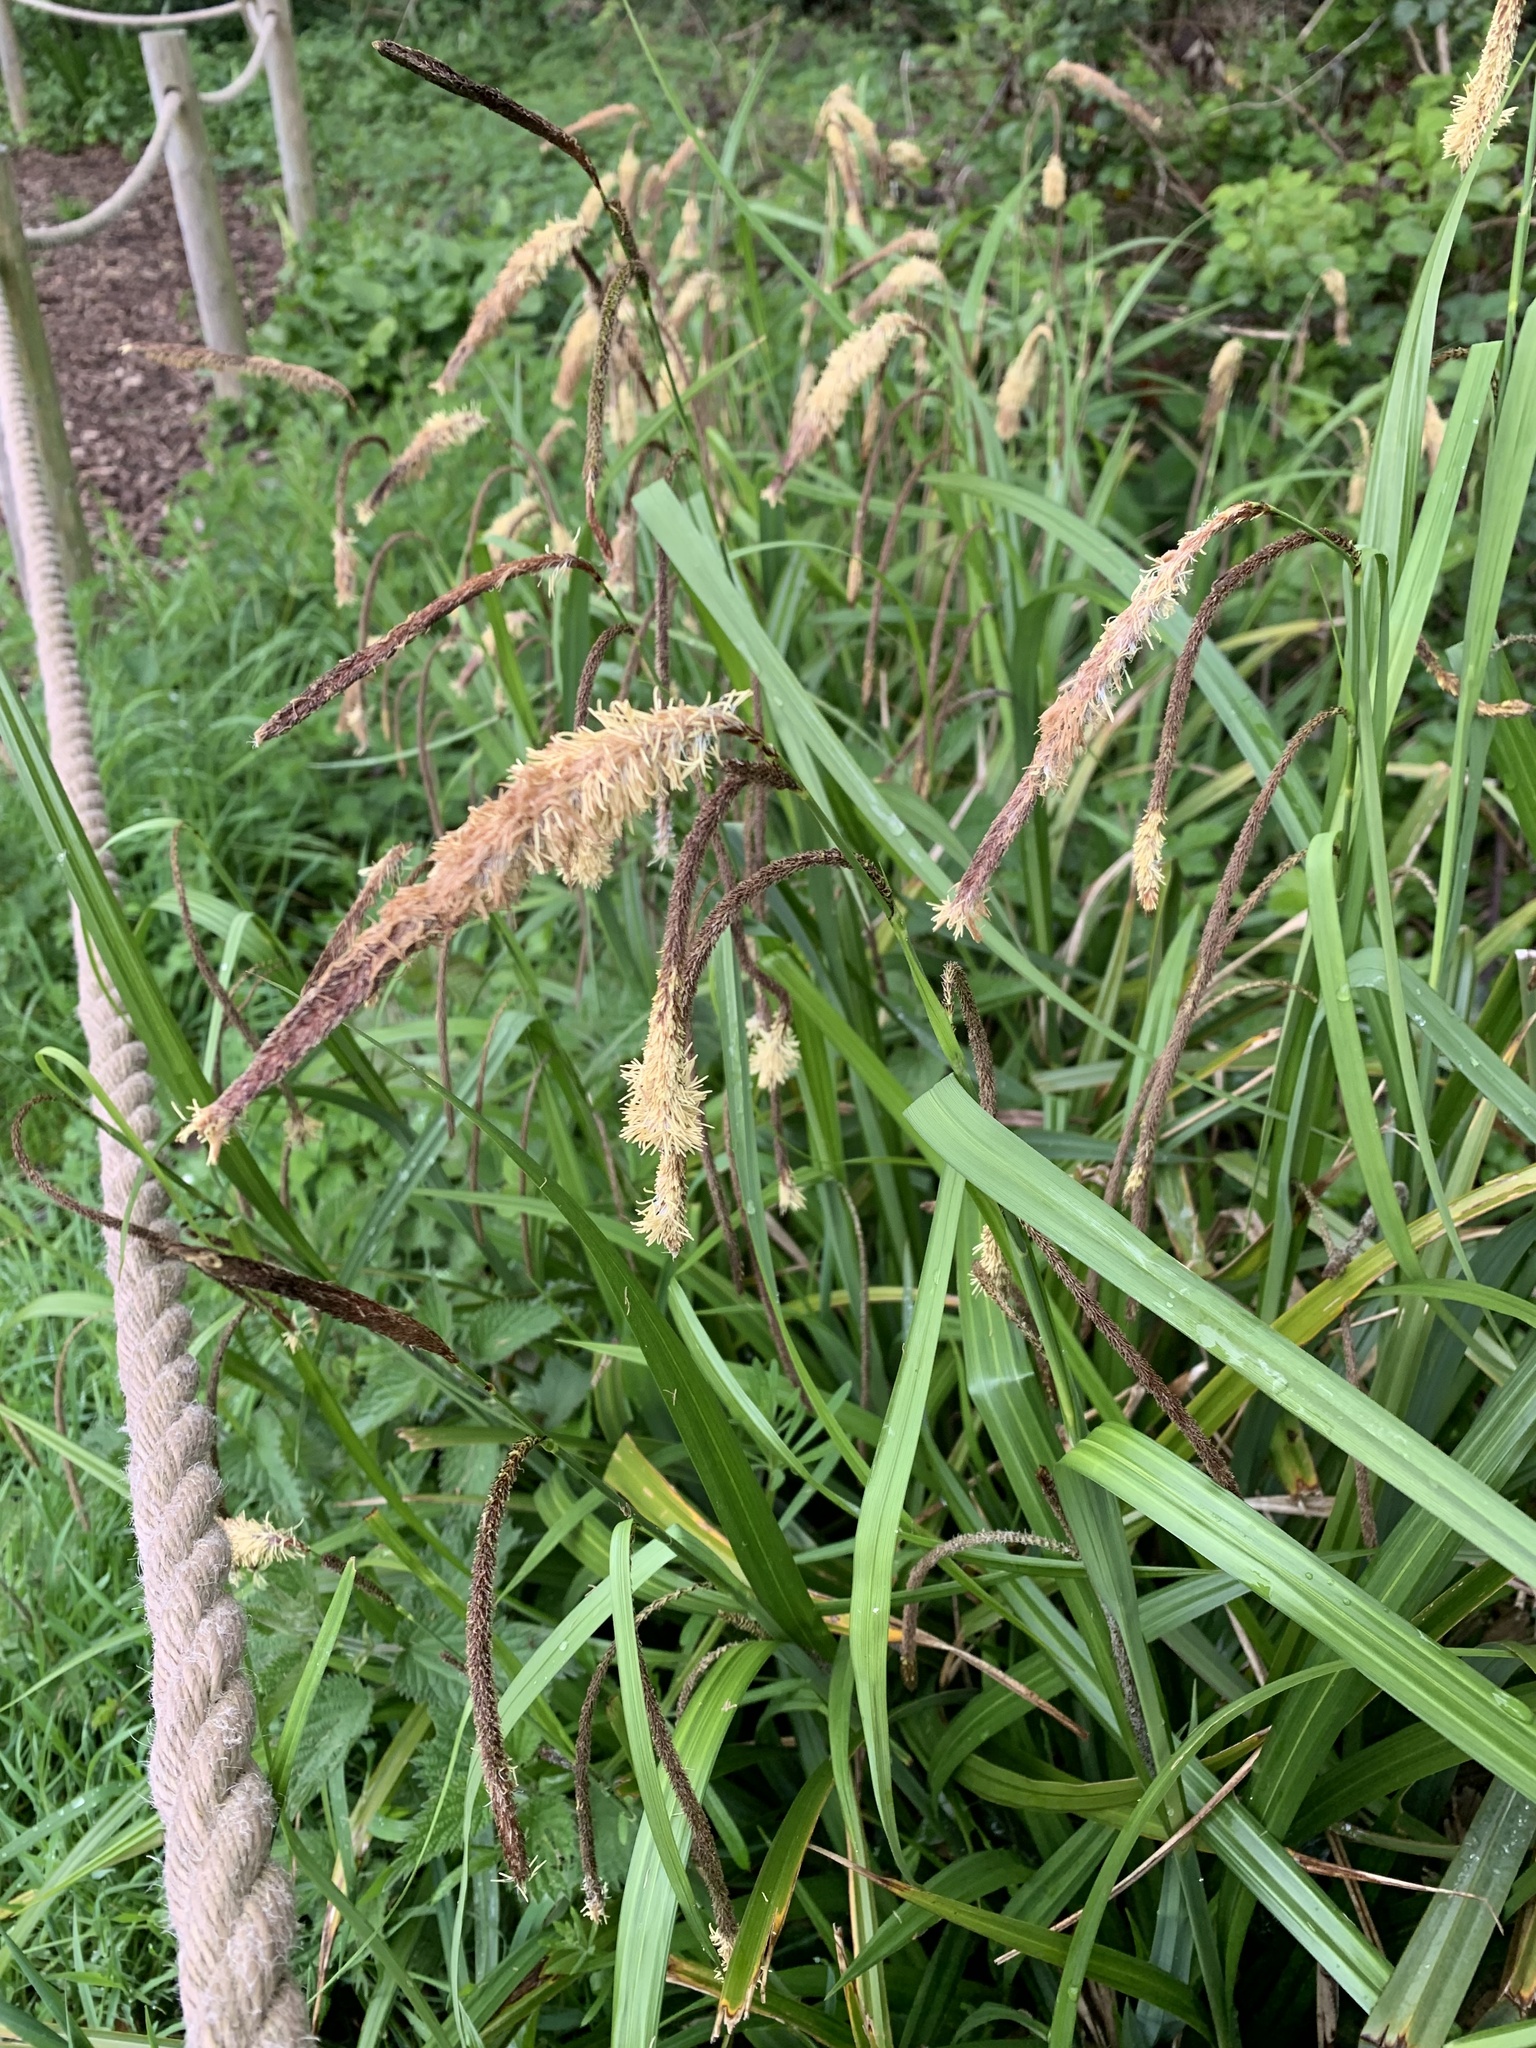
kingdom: Plantae
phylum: Tracheophyta
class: Liliopsida
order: Poales
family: Cyperaceae
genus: Carex
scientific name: Carex pendula
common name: Pendulous sedge
